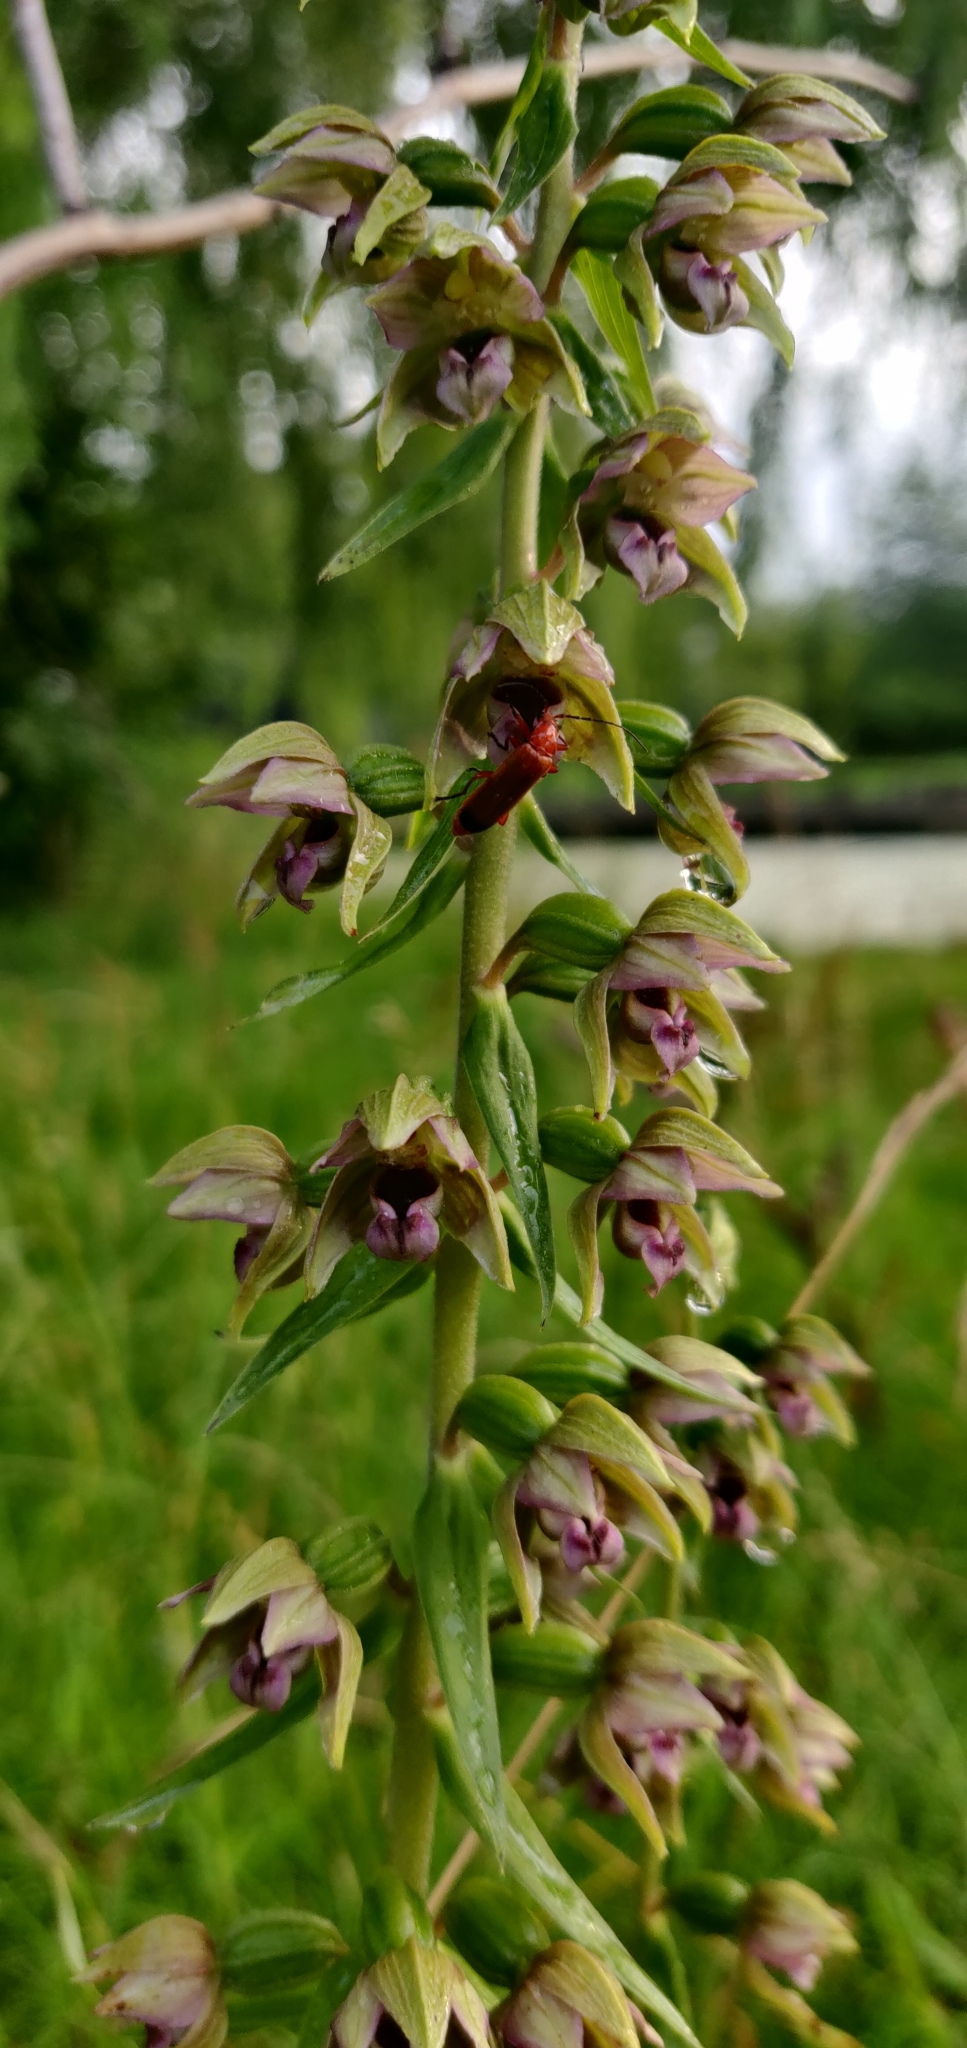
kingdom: Animalia
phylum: Arthropoda
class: Insecta
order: Coleoptera
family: Cantharidae
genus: Rhagonycha
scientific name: Rhagonycha fulva
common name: Common red soldier beetle
